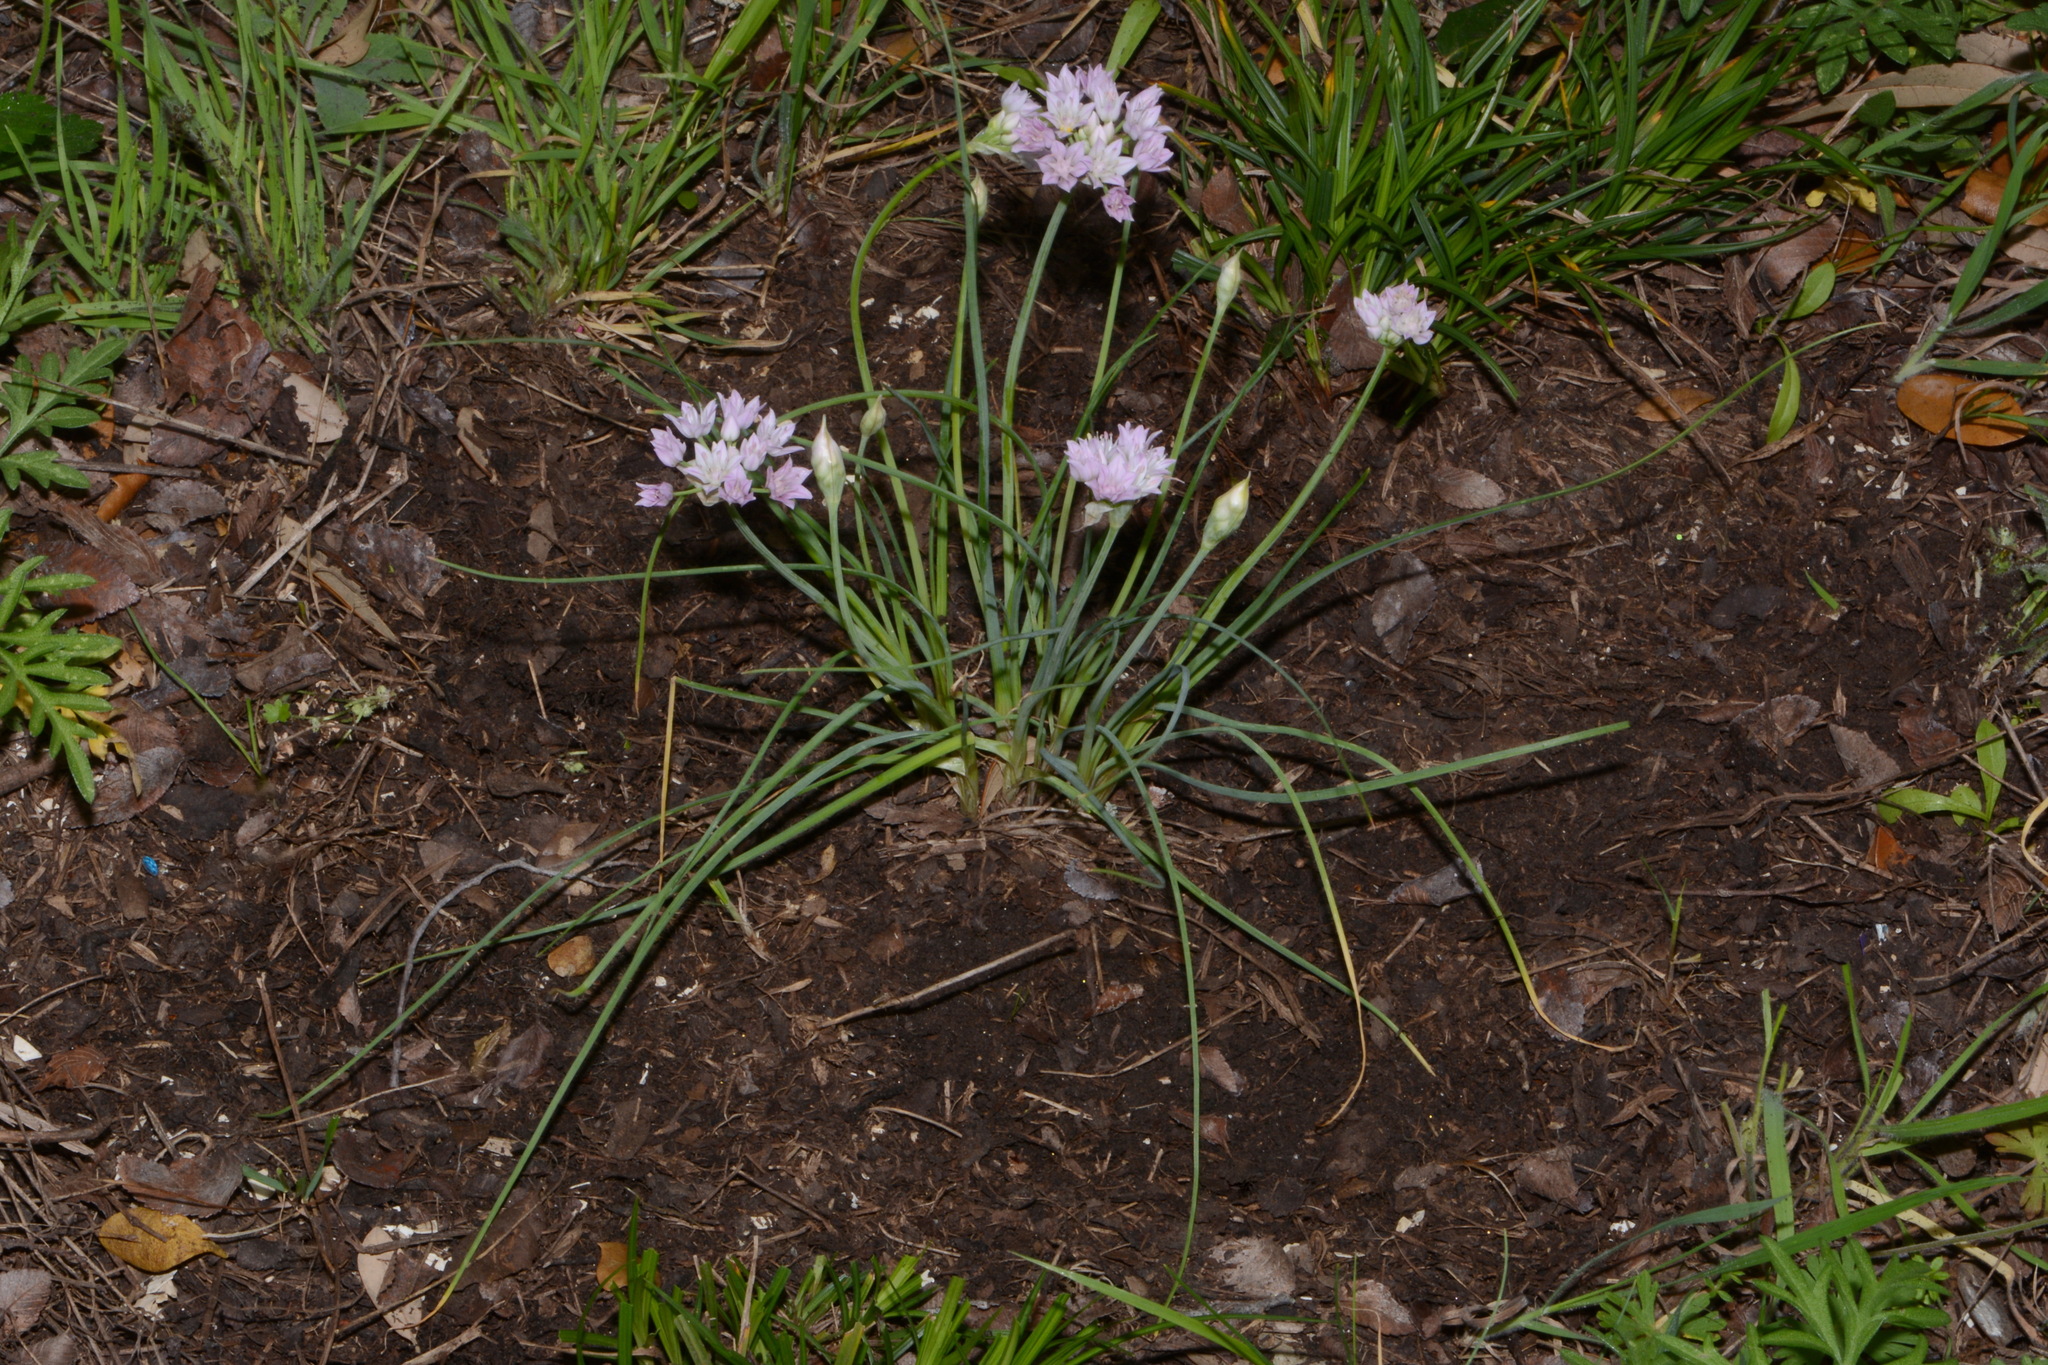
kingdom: Plantae
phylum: Tracheophyta
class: Liliopsida
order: Asparagales
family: Amaryllidaceae
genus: Allium
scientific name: Allium drummondii
